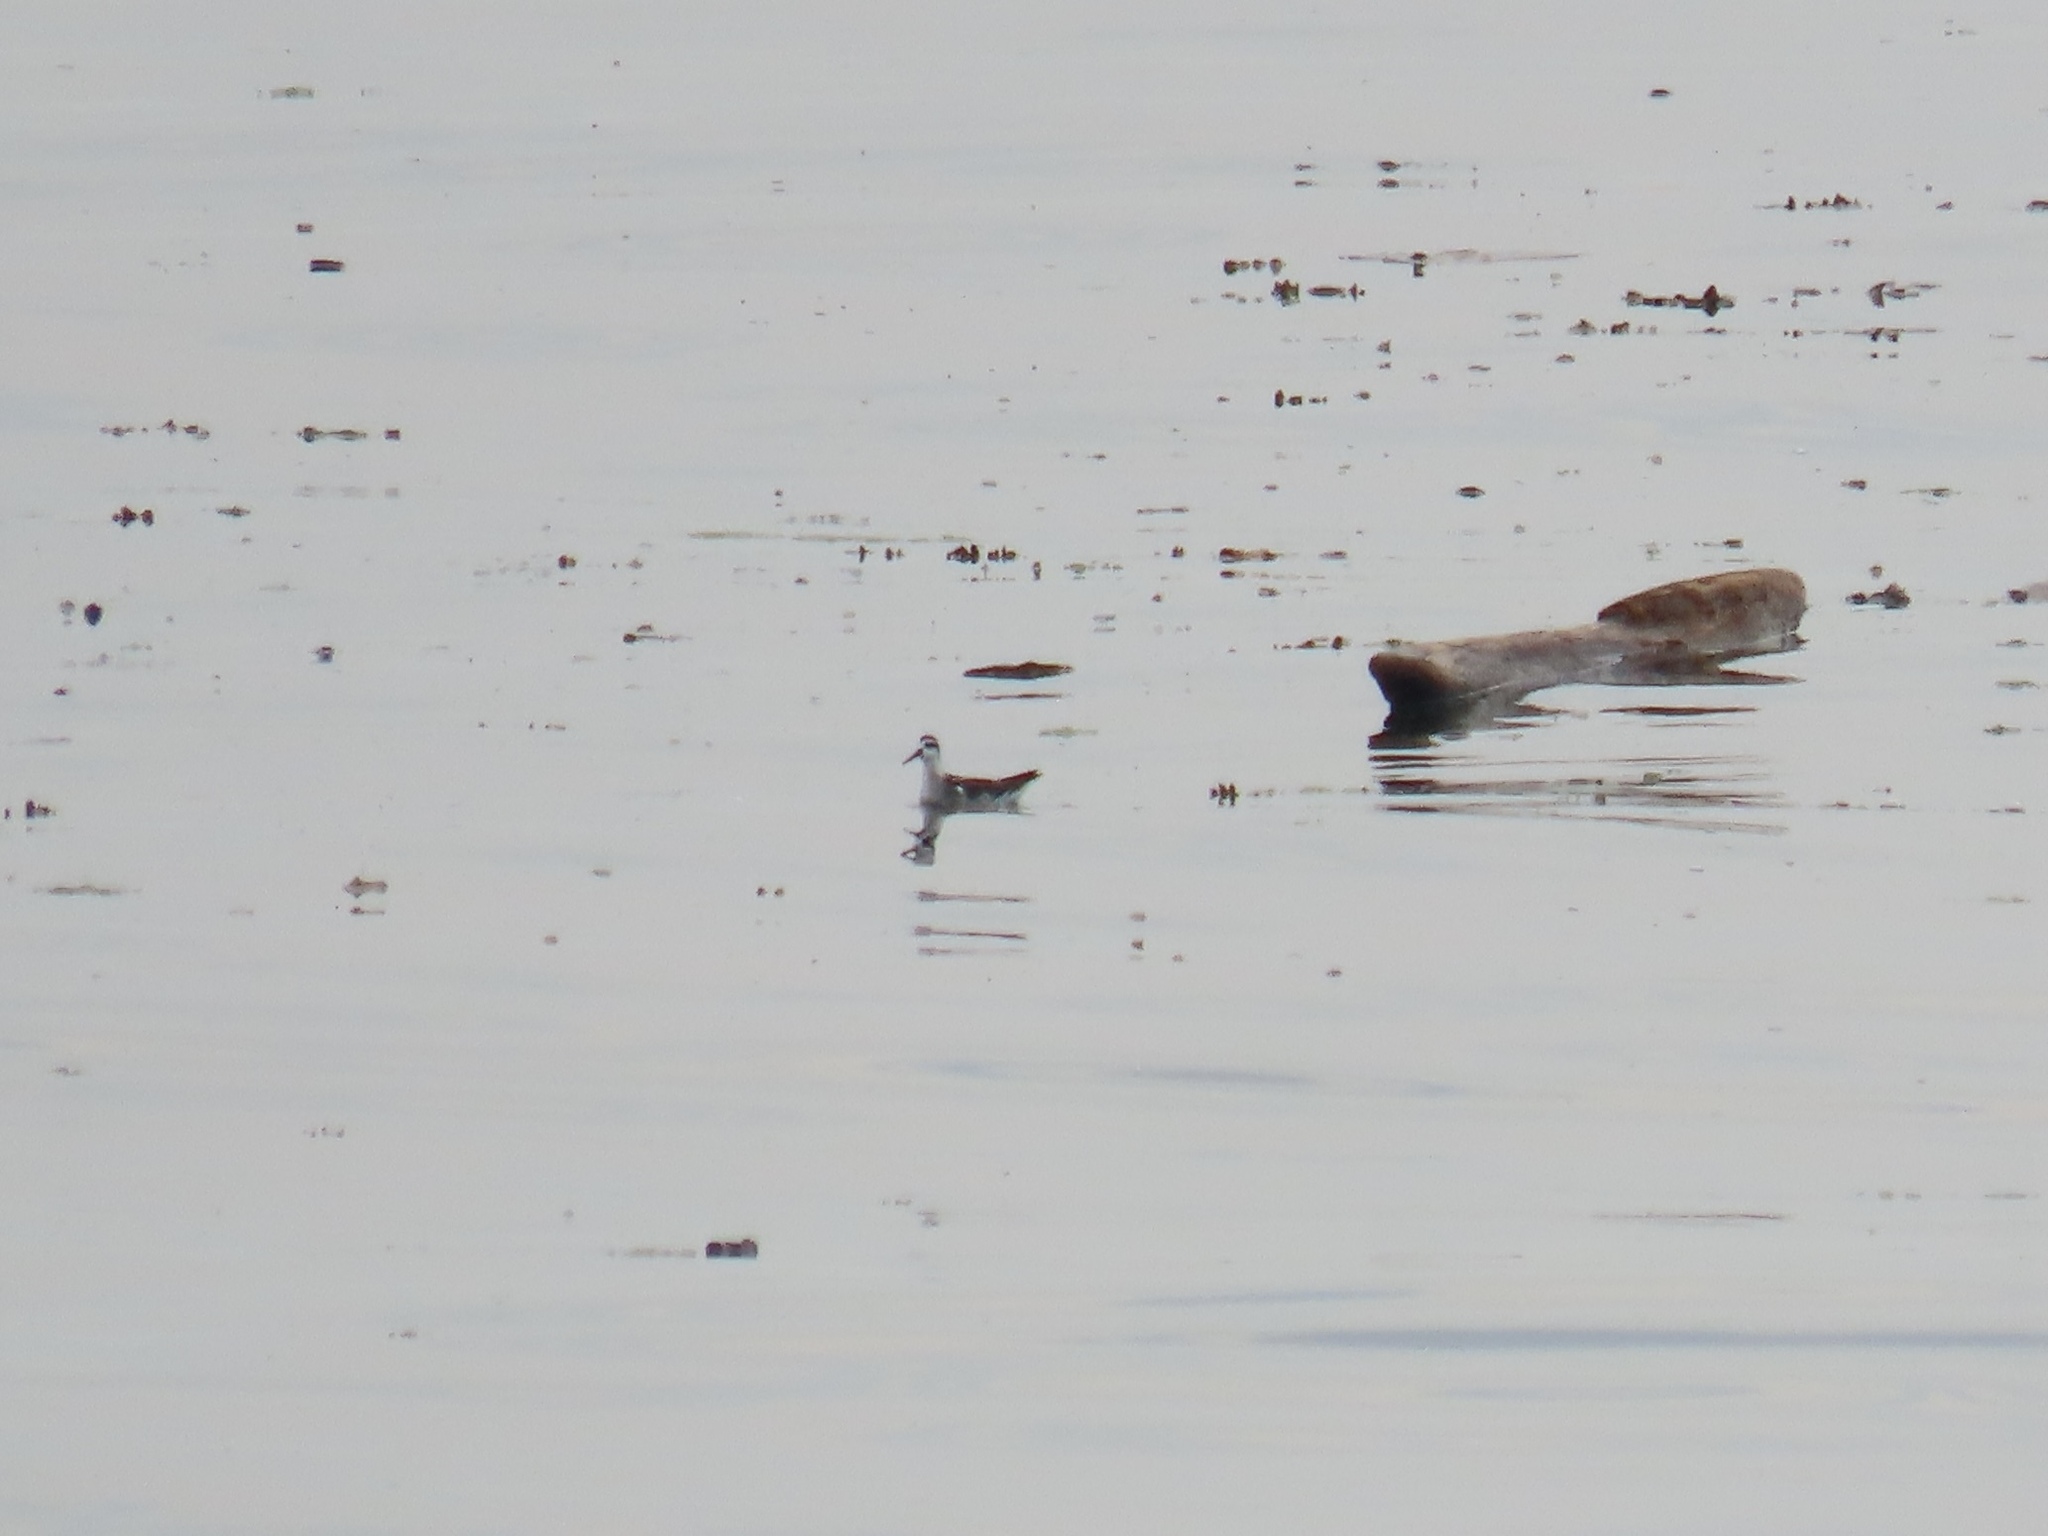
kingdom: Animalia
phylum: Chordata
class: Aves
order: Charadriiformes
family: Scolopacidae
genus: Phalaropus
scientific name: Phalaropus lobatus
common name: Red-necked phalarope
